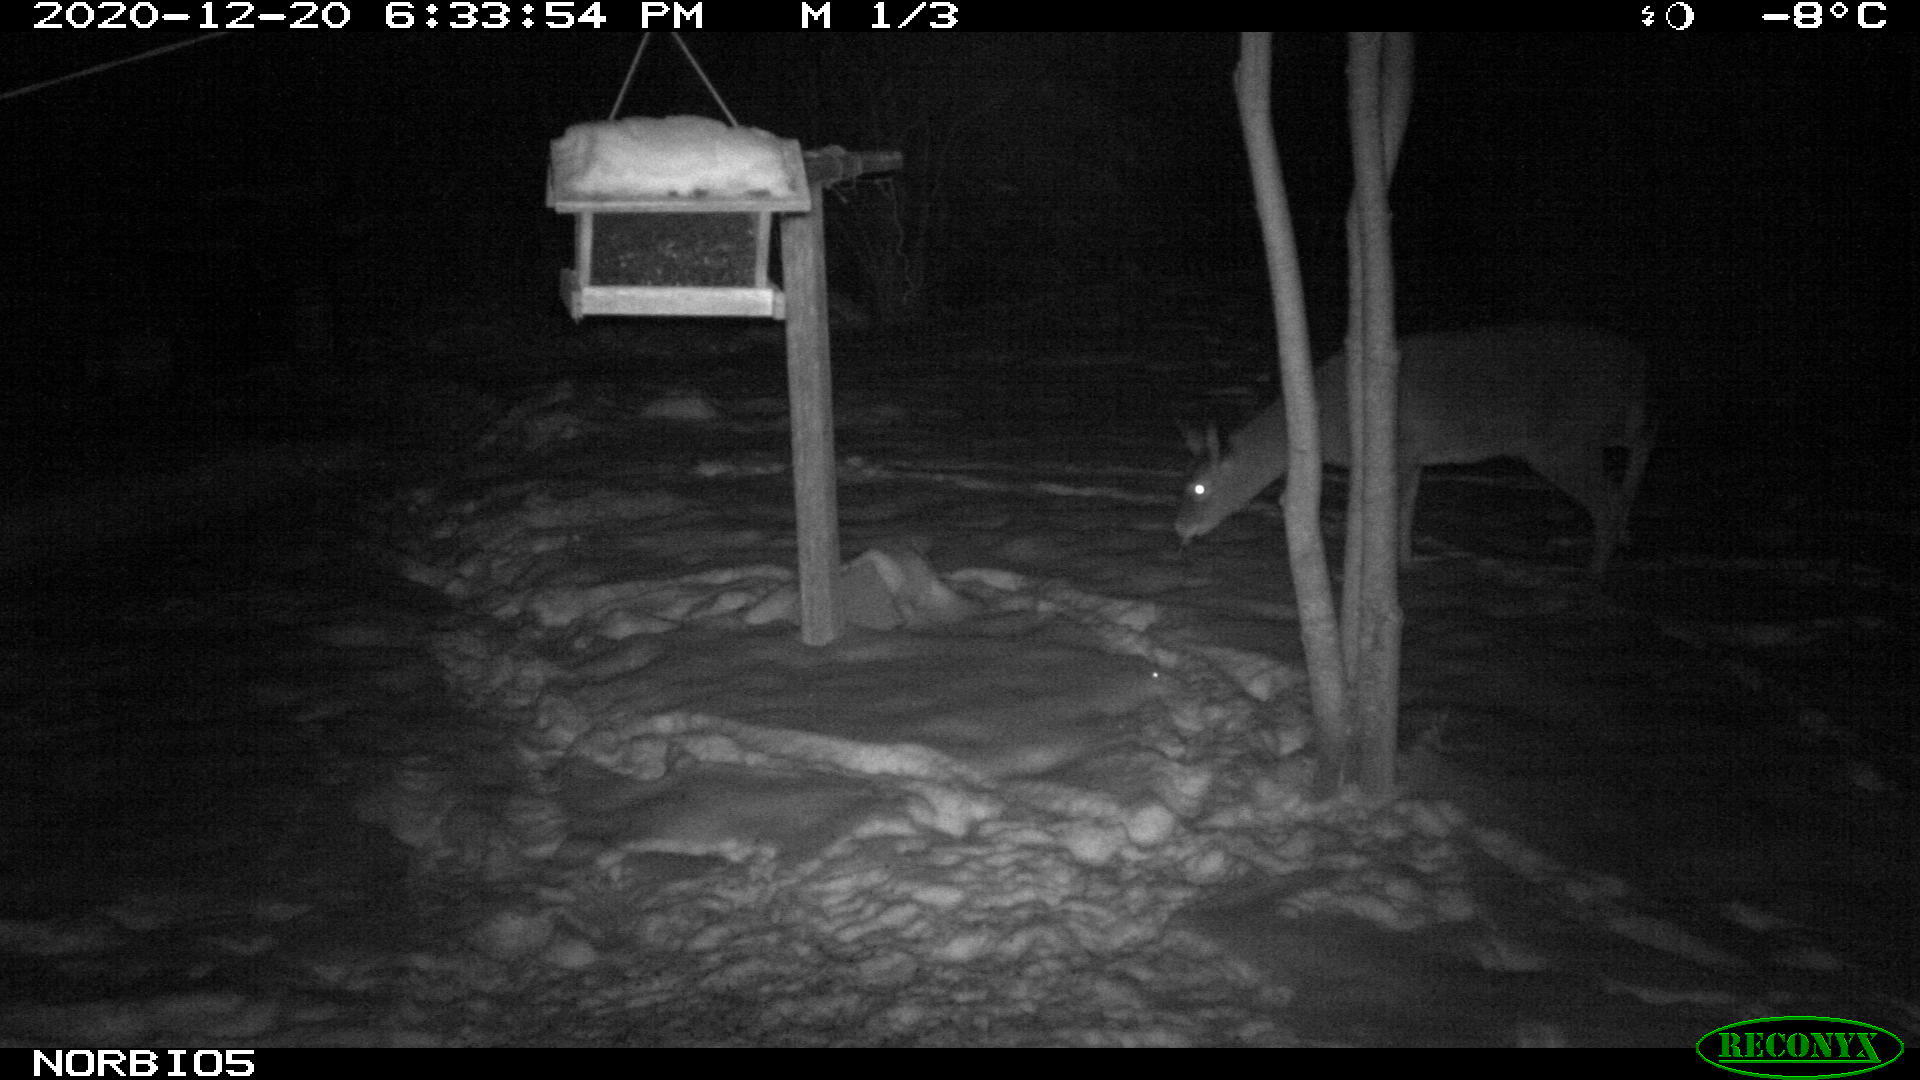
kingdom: Animalia
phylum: Chordata
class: Mammalia
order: Artiodactyla
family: Cervidae
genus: Odocoileus
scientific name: Odocoileus virginianus
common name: White-tailed deer
